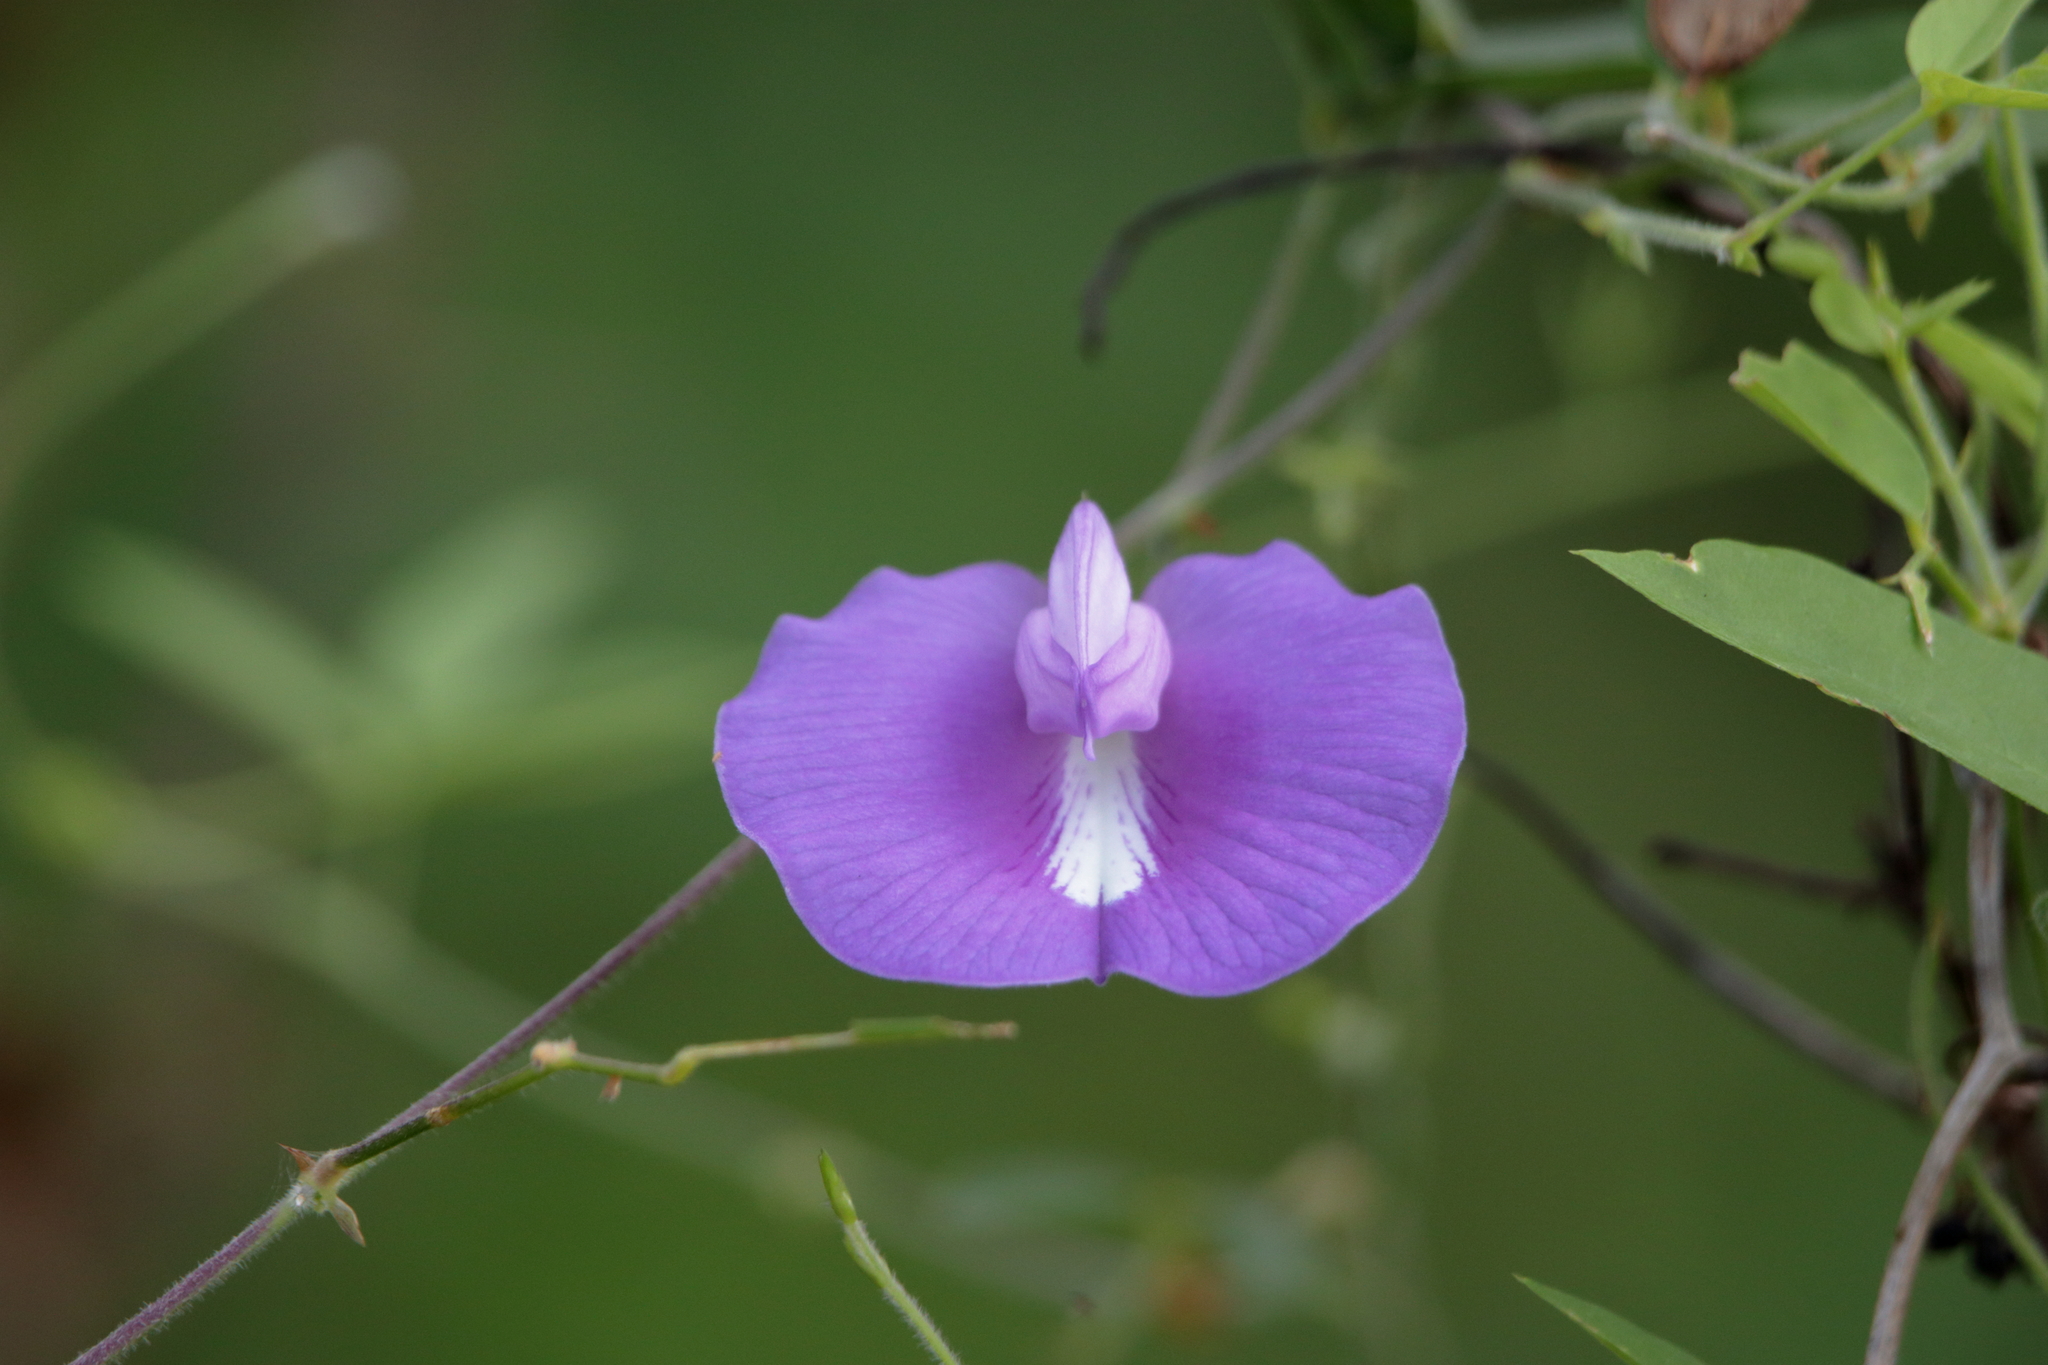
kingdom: Plantae
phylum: Tracheophyta
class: Magnoliopsida
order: Fabales
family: Fabaceae
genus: Centrosema
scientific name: Centrosema virginianum
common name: Butterfly-pea
